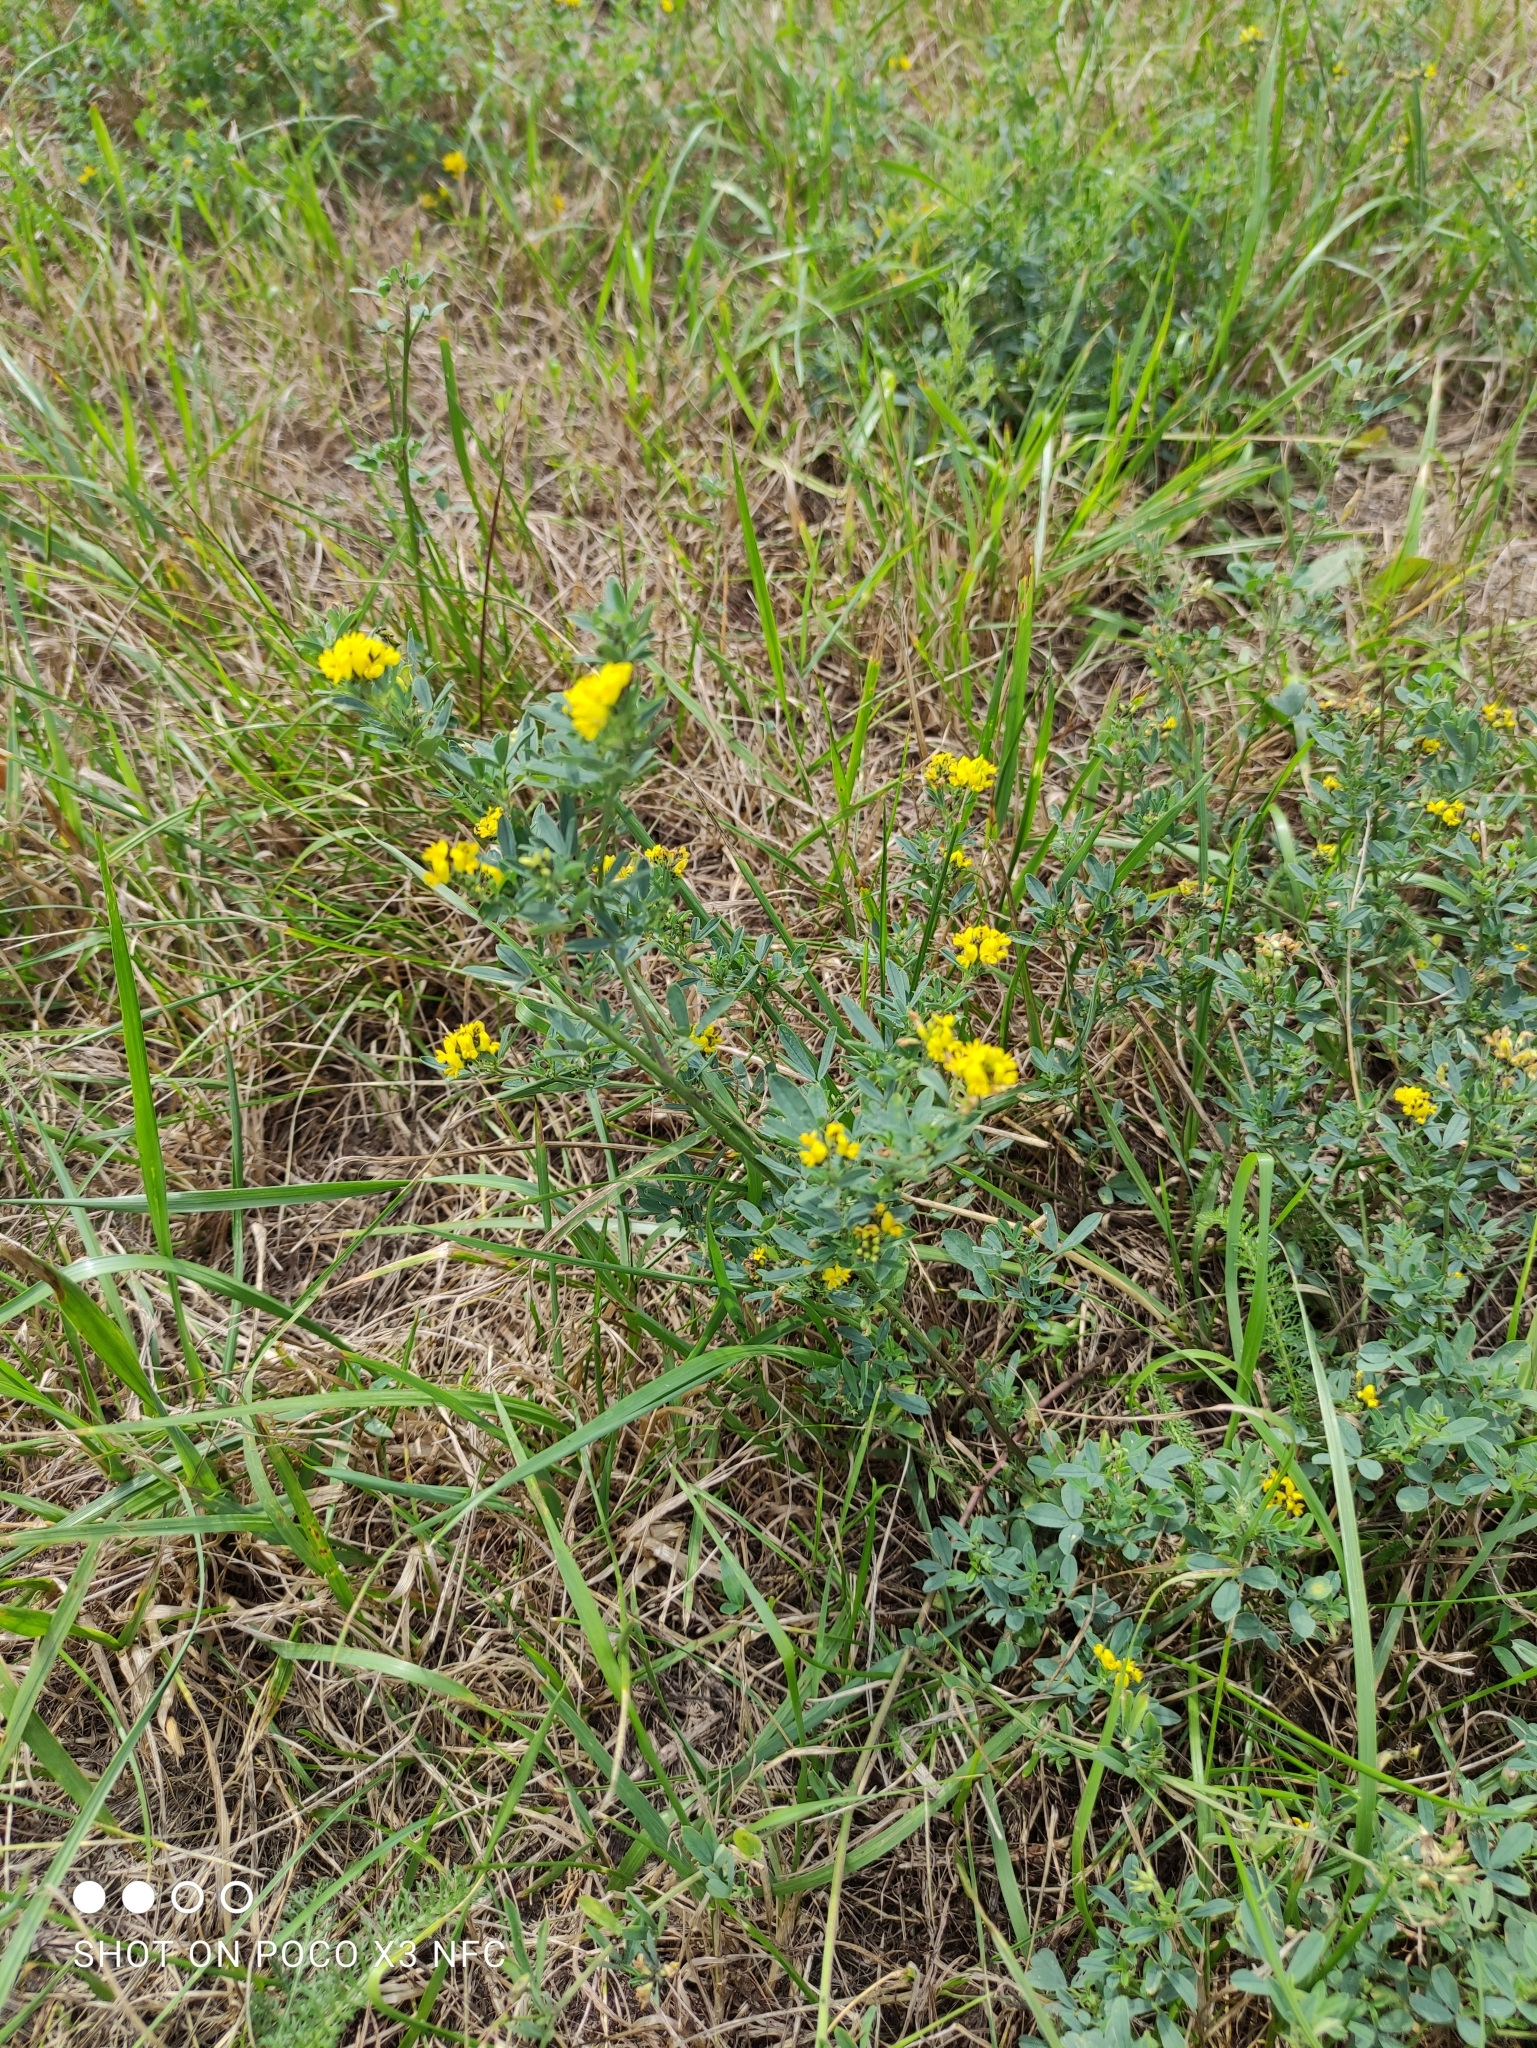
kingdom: Plantae
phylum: Tracheophyta
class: Magnoliopsida
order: Fabales
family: Fabaceae
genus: Medicago
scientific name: Medicago falcata
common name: Sickle medick
